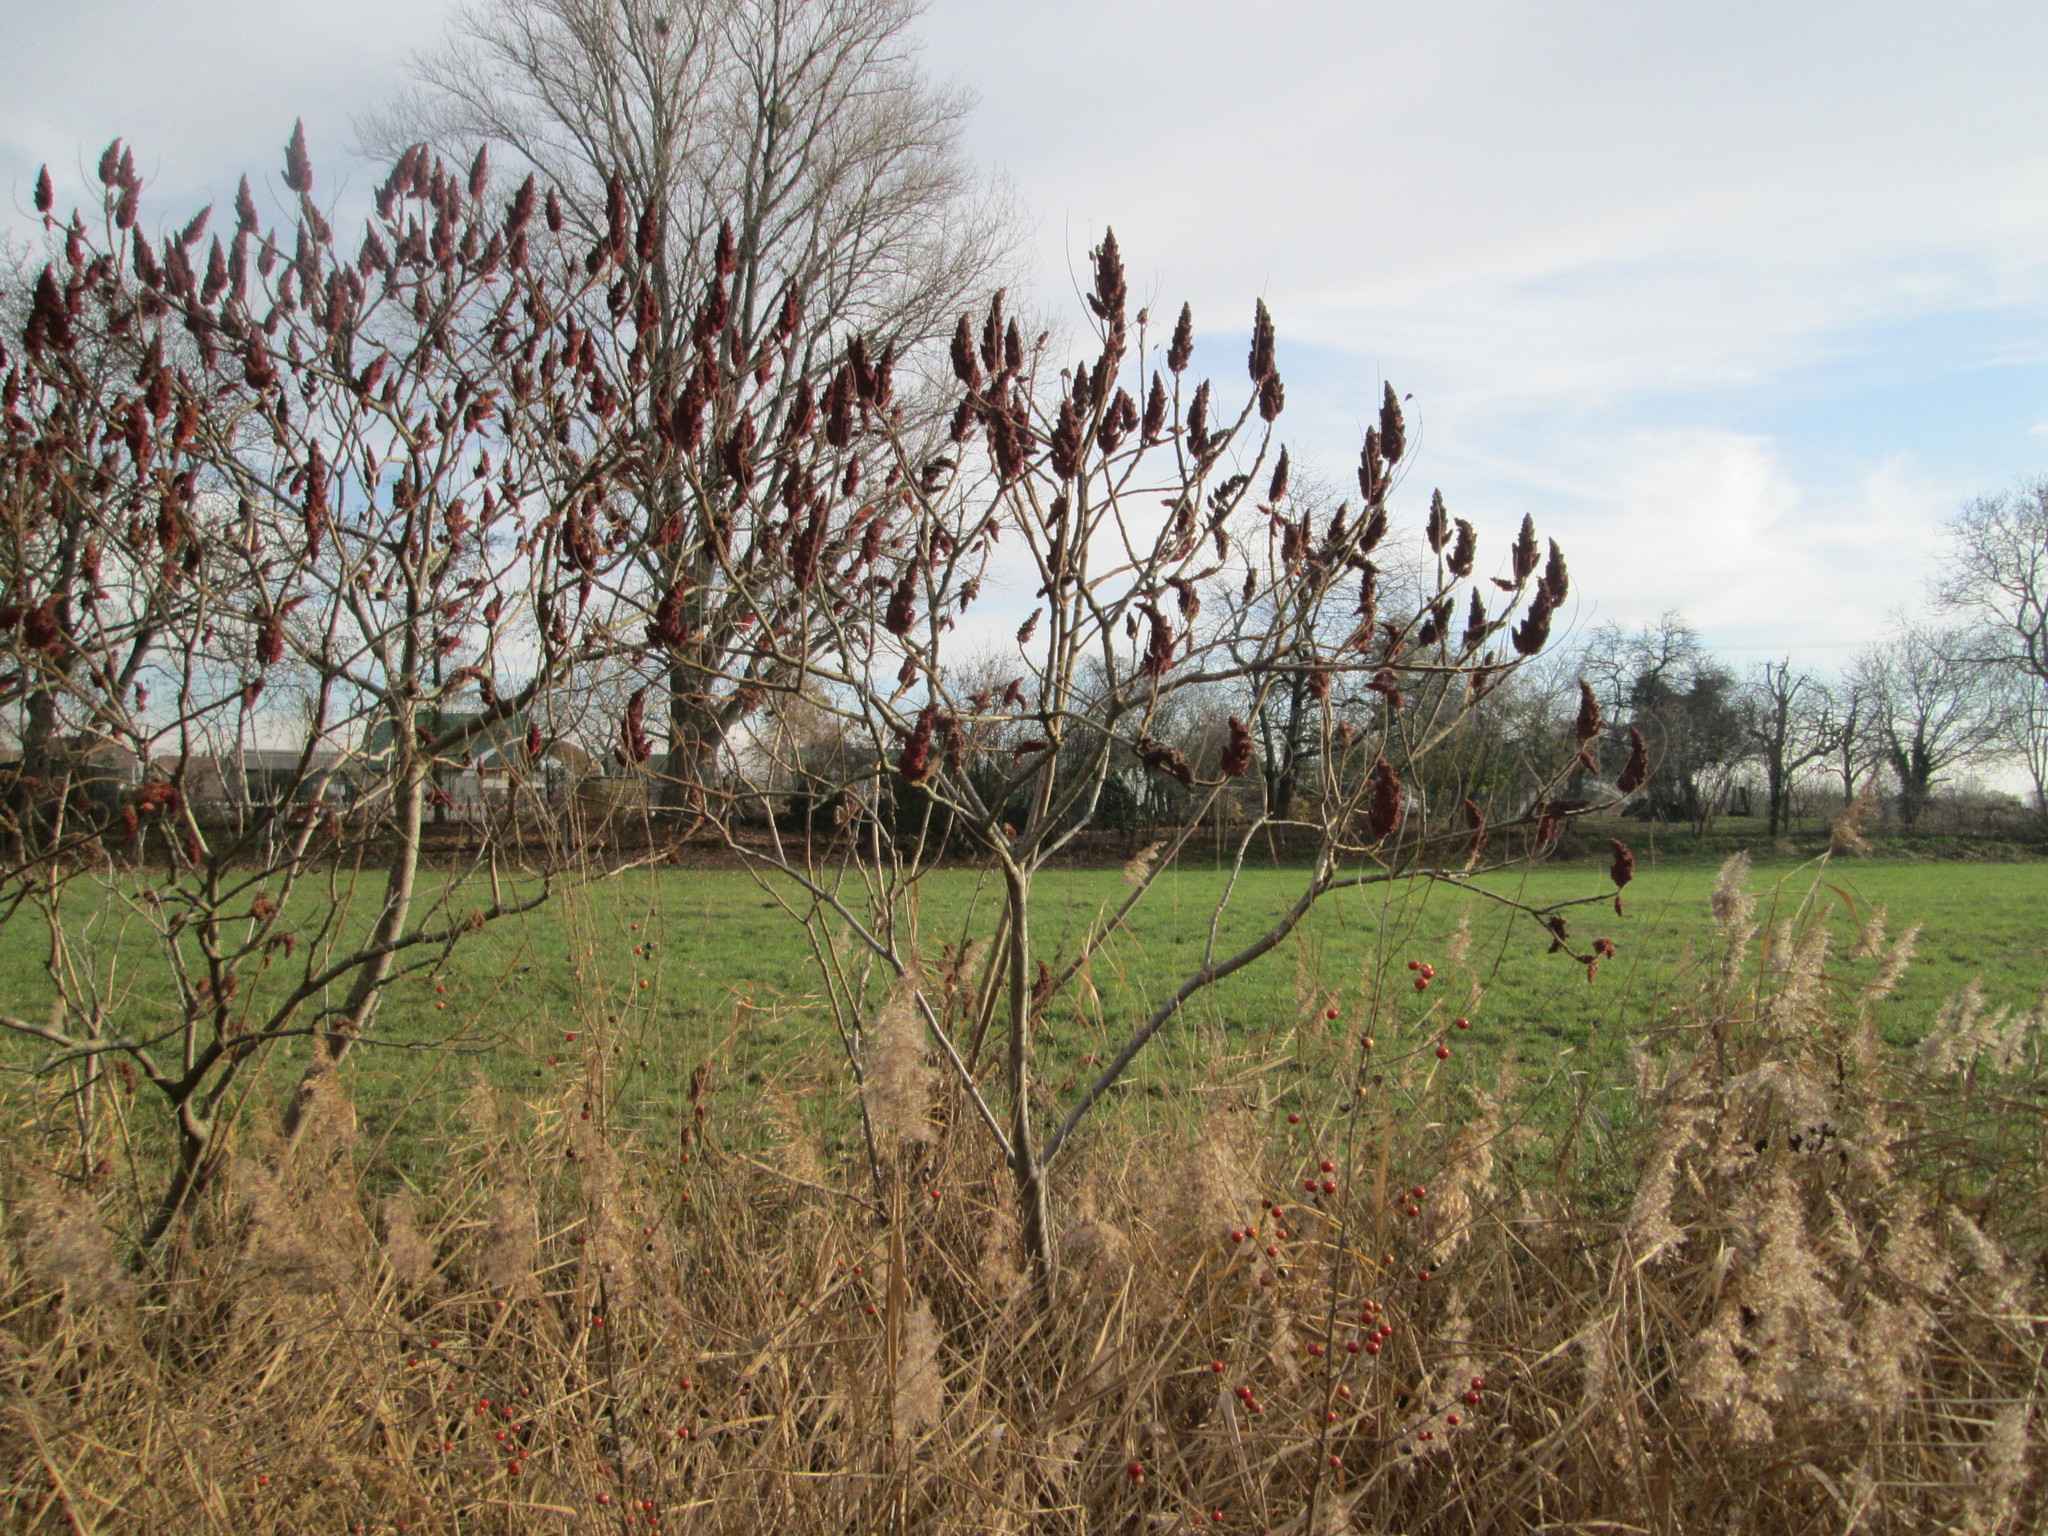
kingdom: Plantae
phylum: Tracheophyta
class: Magnoliopsida
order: Sapindales
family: Anacardiaceae
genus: Rhus
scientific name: Rhus typhina
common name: Staghorn sumac
